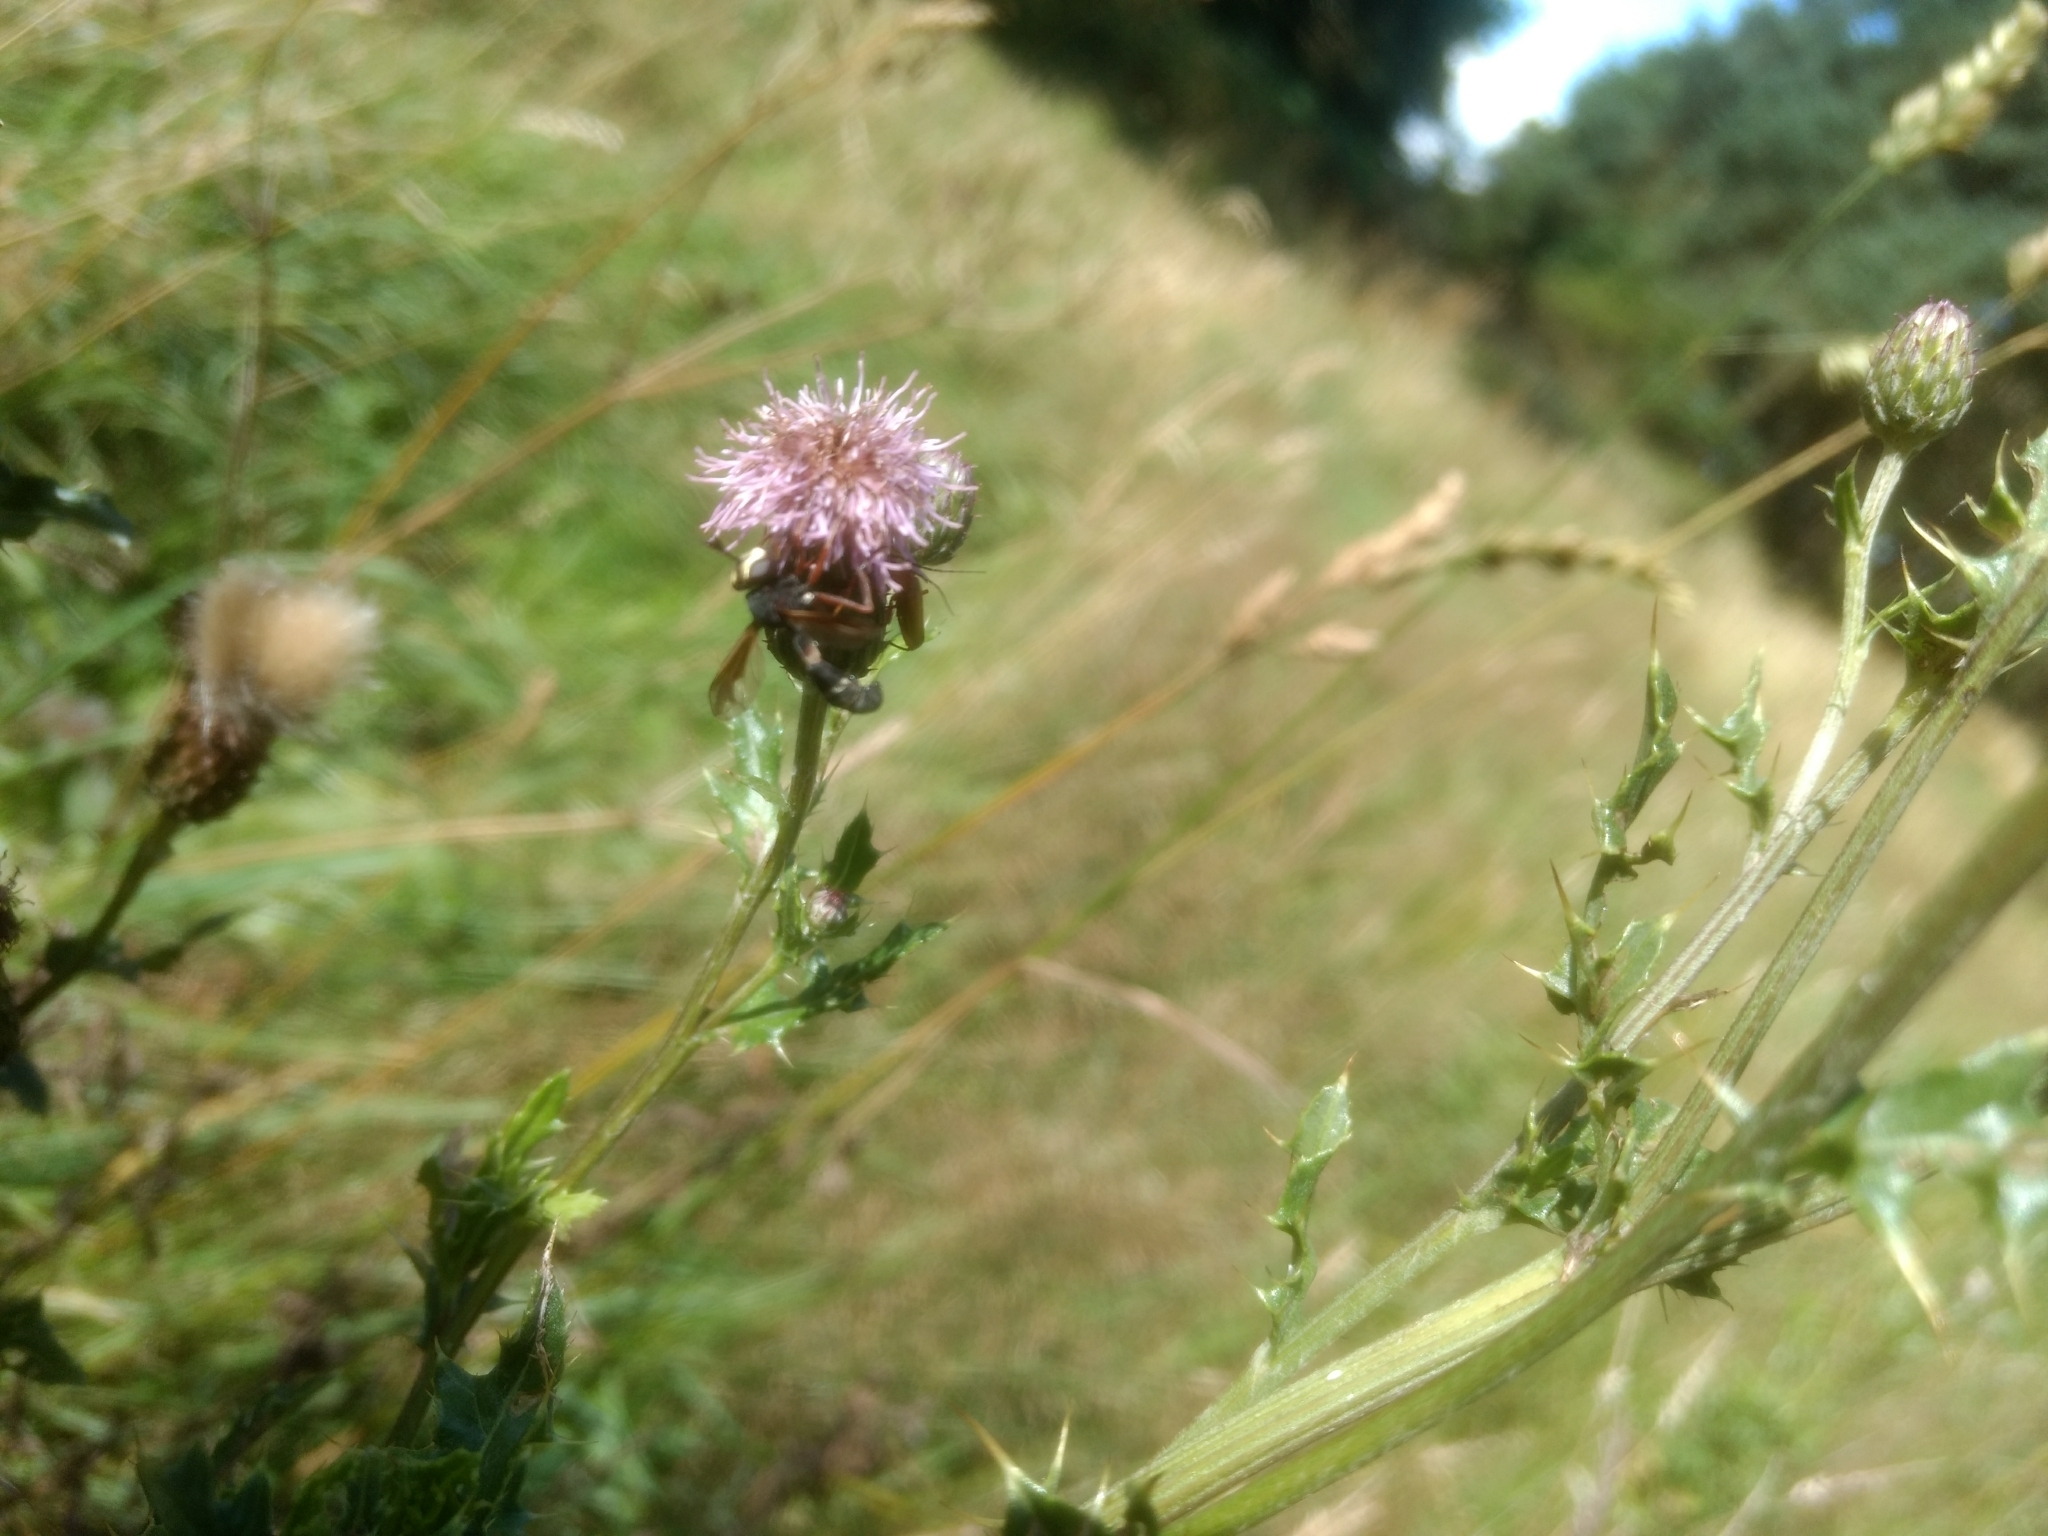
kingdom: Animalia
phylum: Arthropoda
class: Insecta
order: Diptera
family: Conopidae
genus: Physocephala
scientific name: Physocephala rufipes
